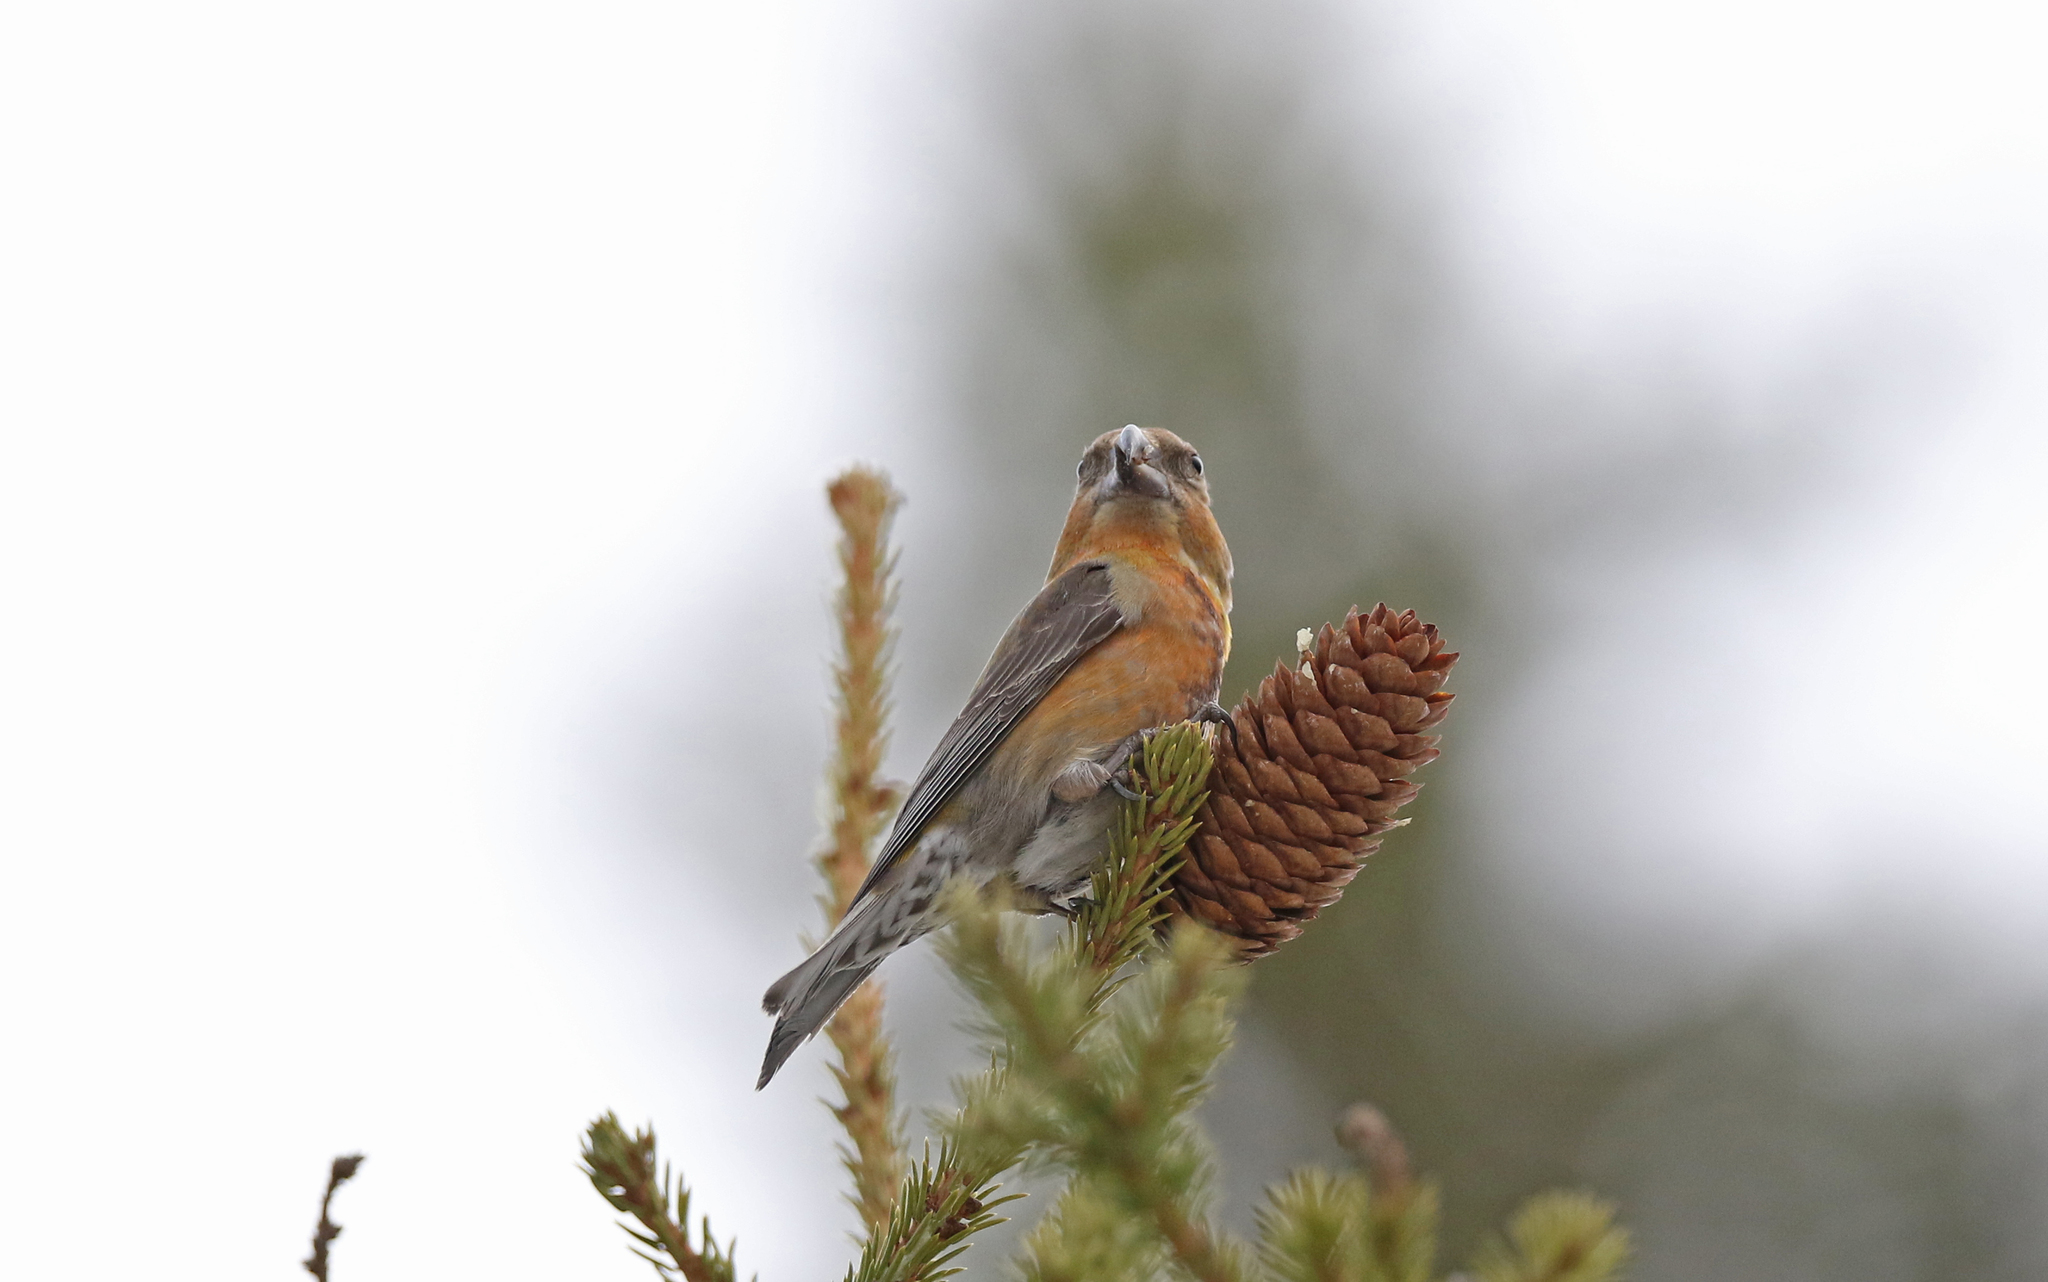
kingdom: Animalia
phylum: Chordata
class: Aves
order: Passeriformes
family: Fringillidae
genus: Loxia
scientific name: Loxia pytyopsittacus
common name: Parrot crossbill
